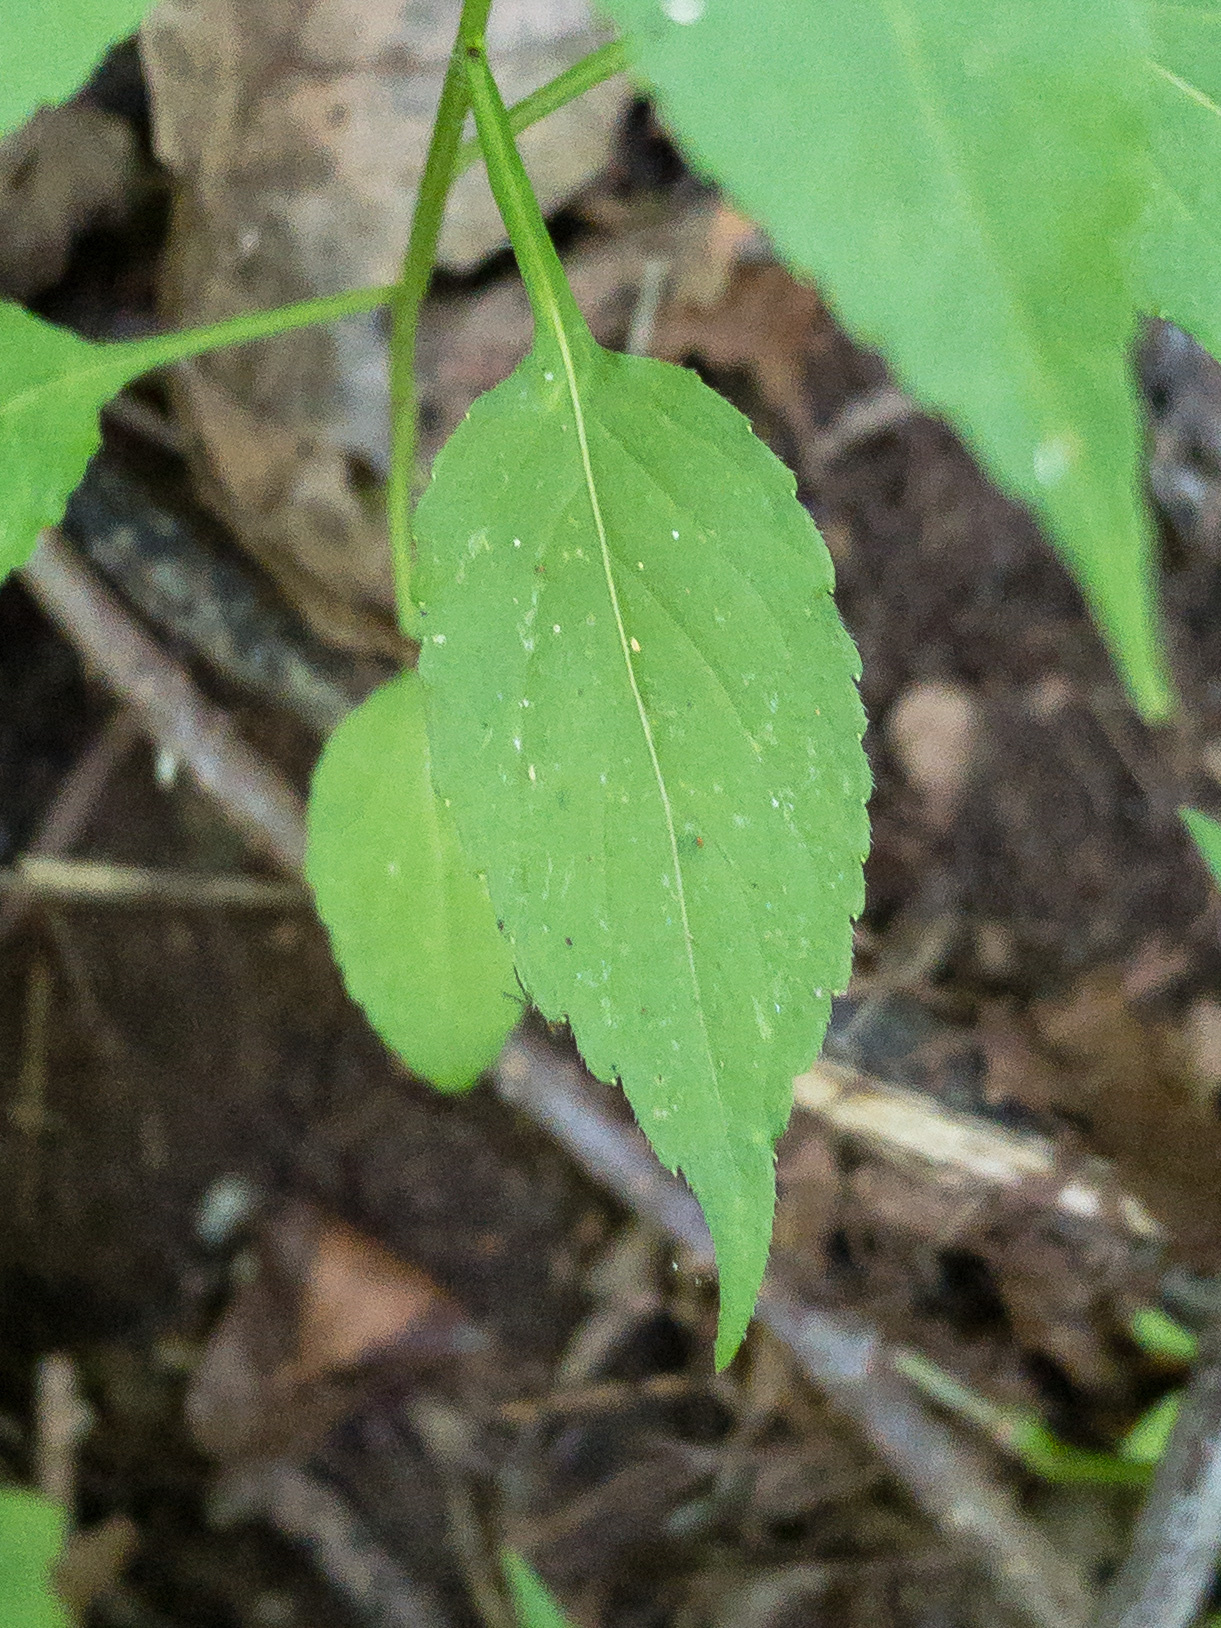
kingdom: Plantae
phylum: Tracheophyta
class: Magnoliopsida
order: Asterales
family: Campanulaceae
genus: Campanulastrum
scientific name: Campanulastrum americanum
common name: American bellflower
